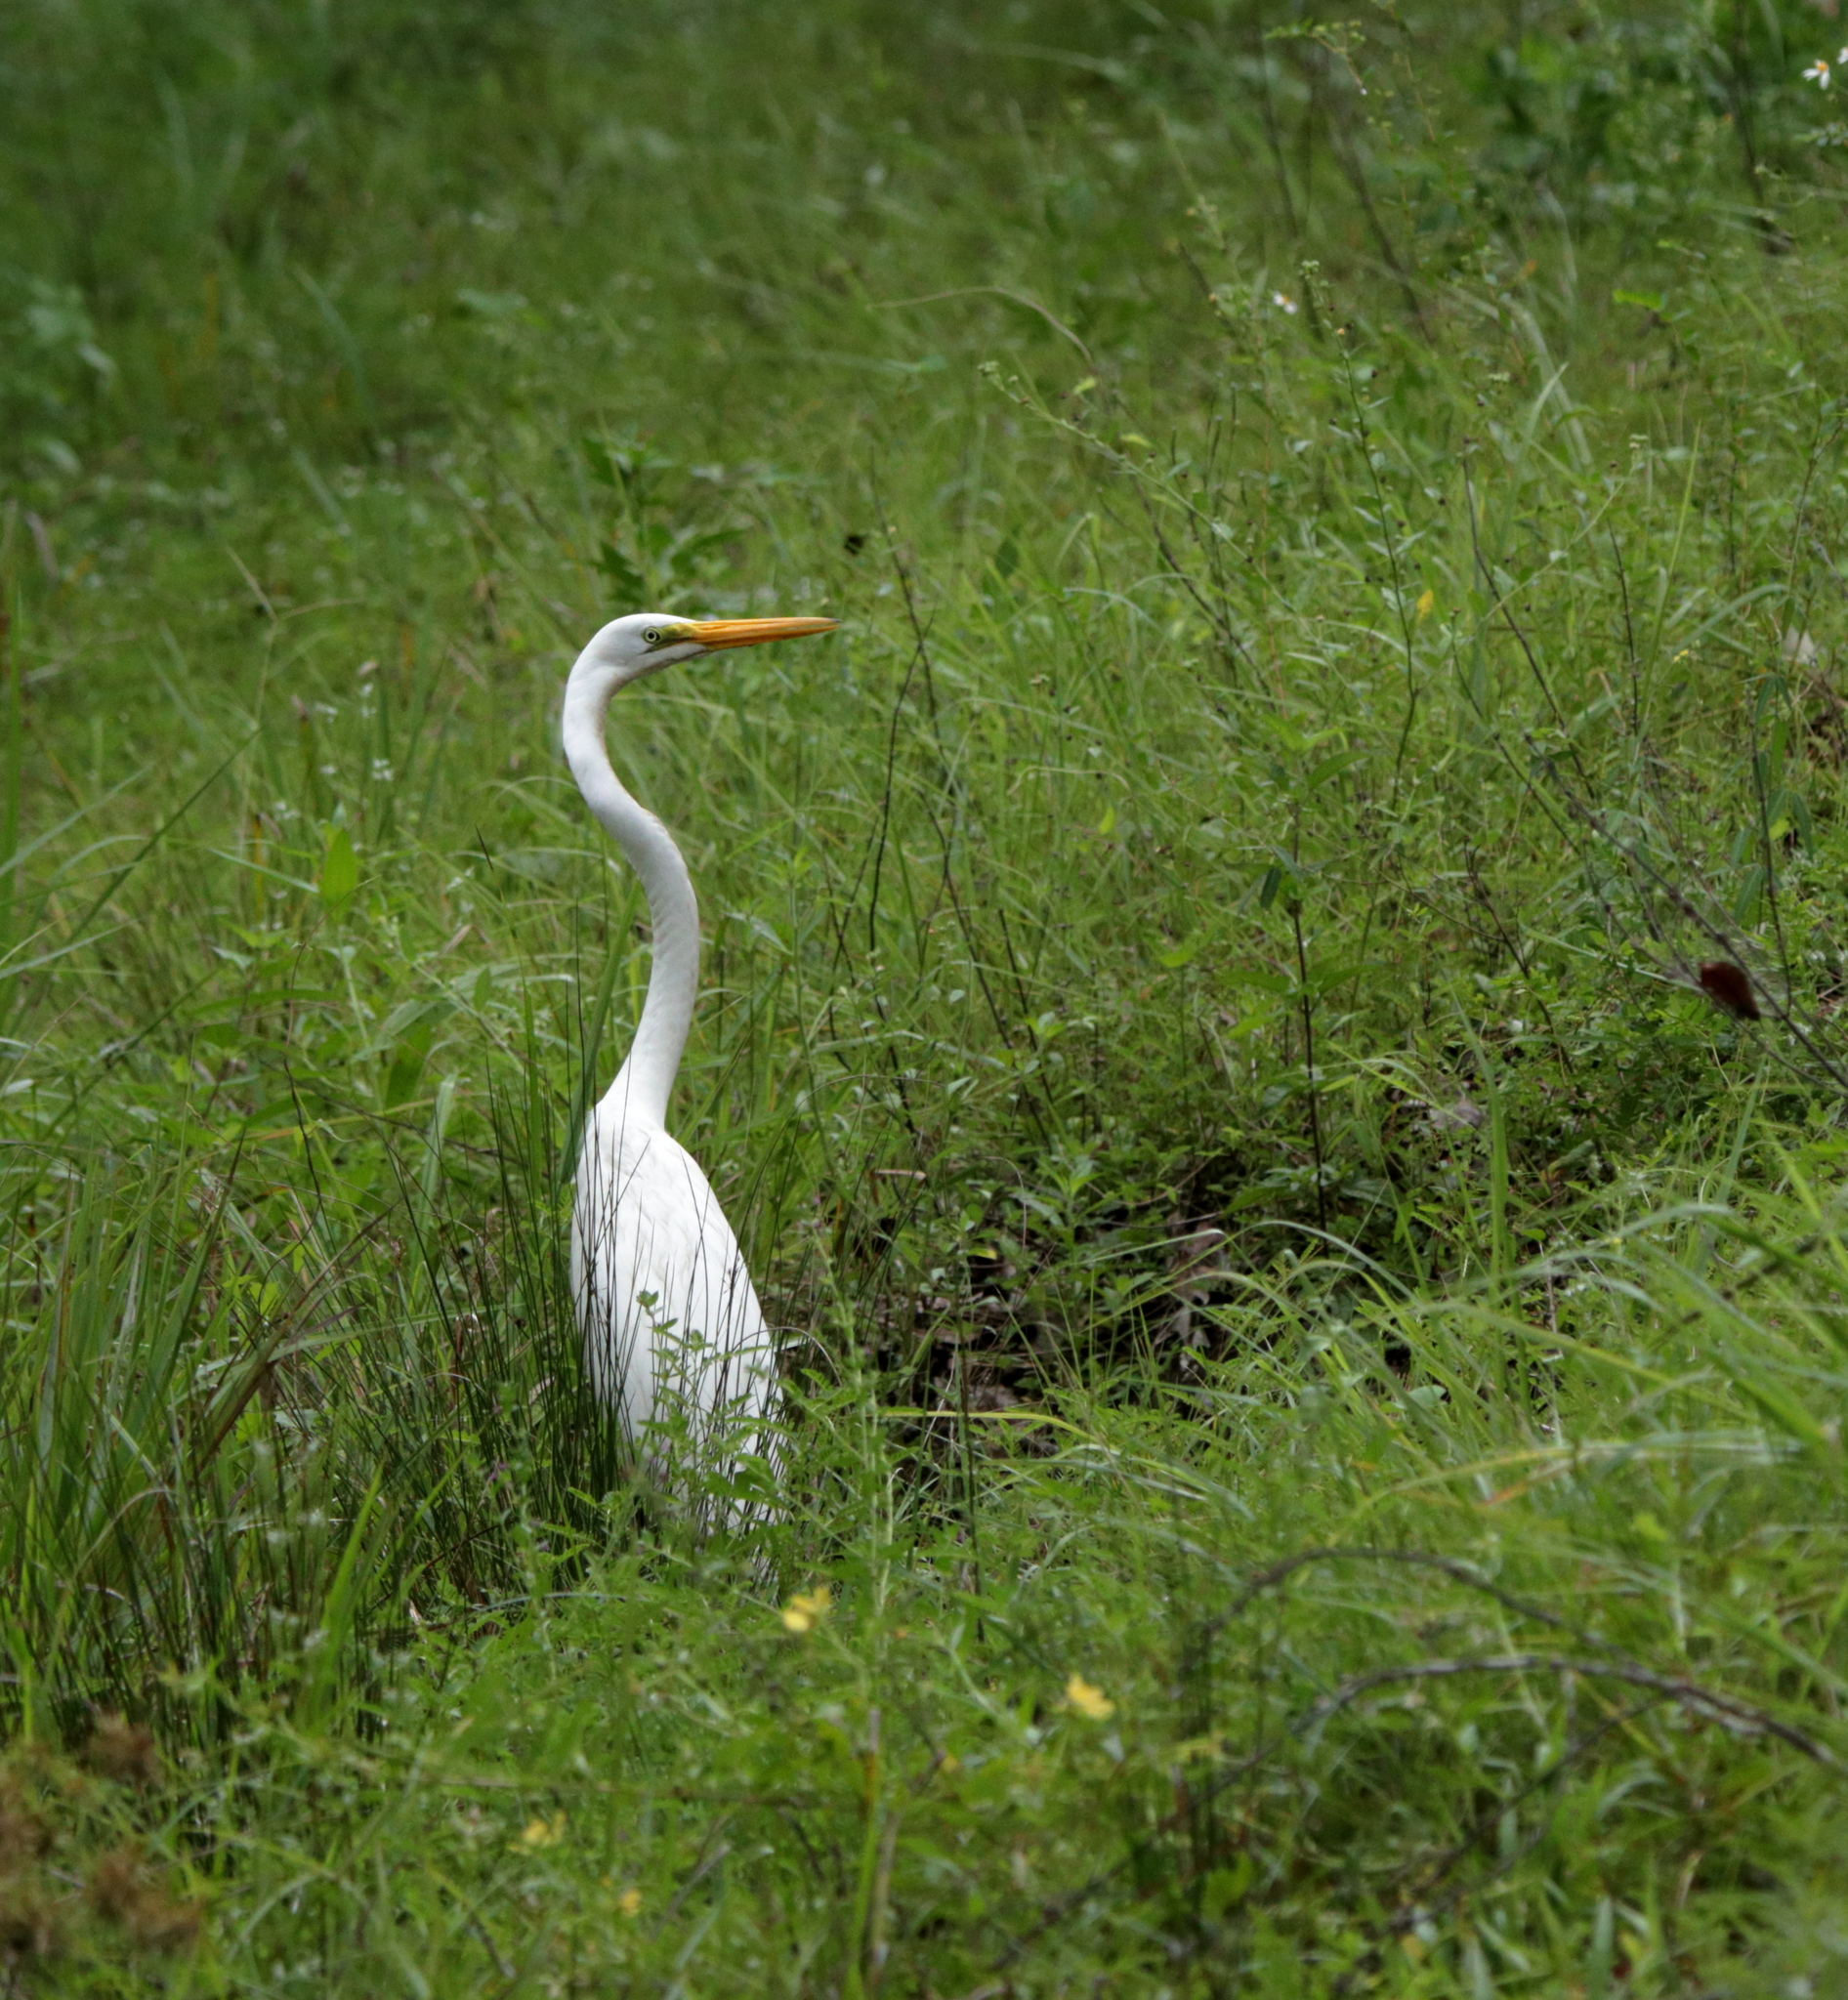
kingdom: Animalia
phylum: Chordata
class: Aves
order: Pelecaniformes
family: Ardeidae
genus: Ardea
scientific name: Ardea alba
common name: Great egret
